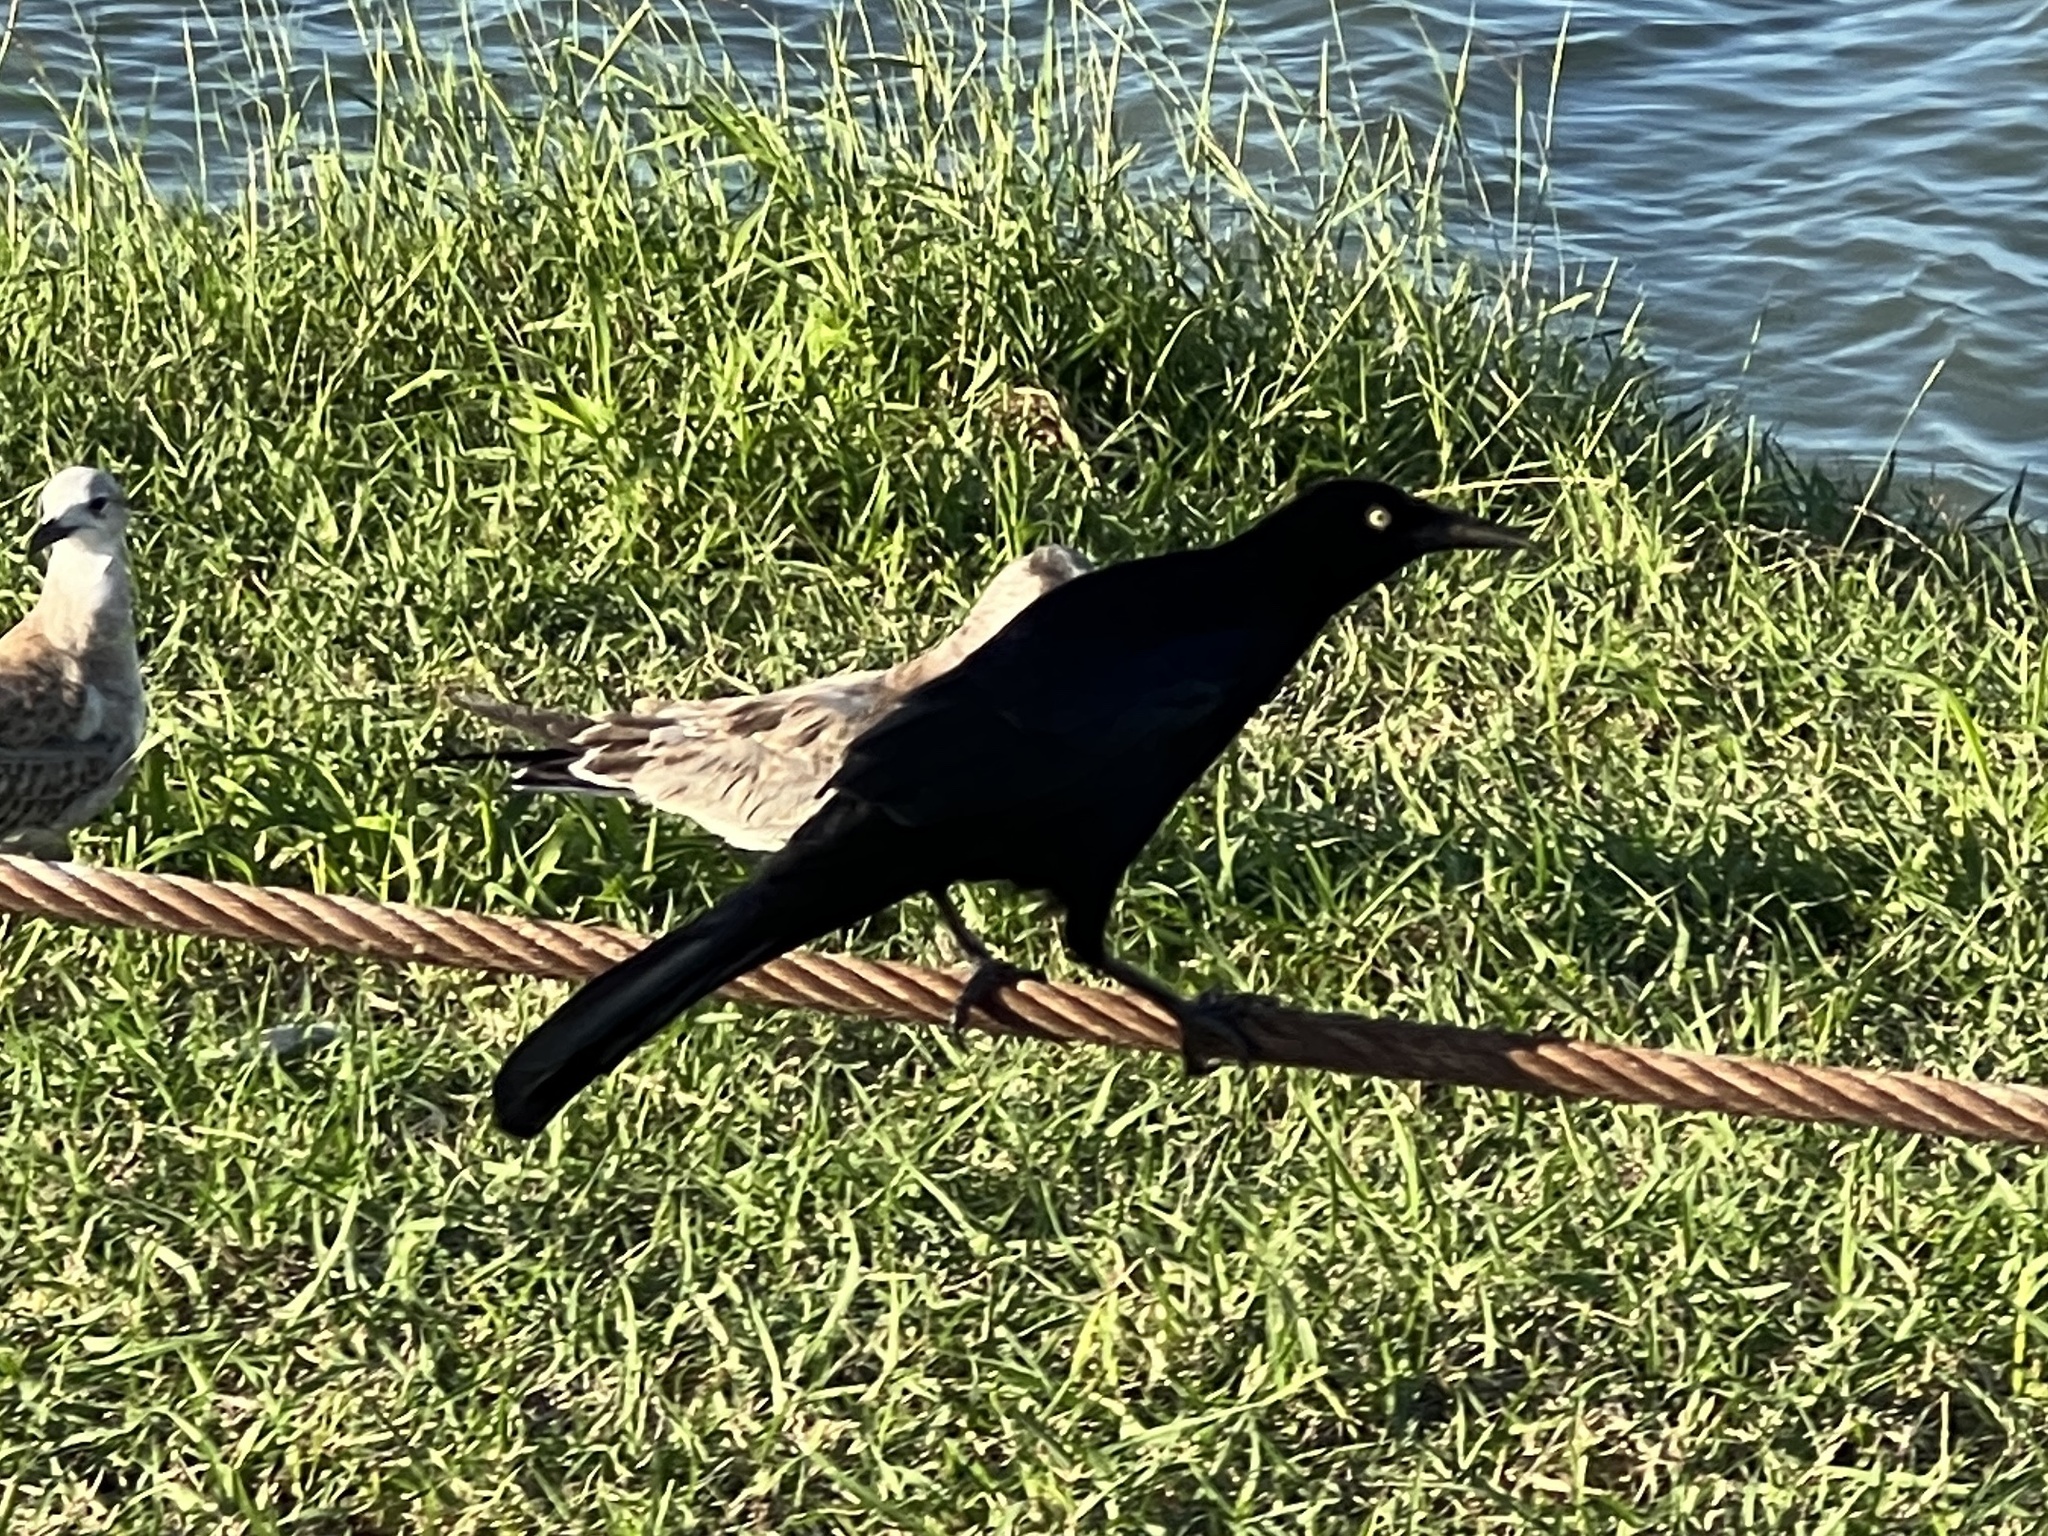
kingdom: Animalia
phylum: Chordata
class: Aves
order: Passeriformes
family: Icteridae
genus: Quiscalus
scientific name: Quiscalus mexicanus
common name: Great-tailed grackle
